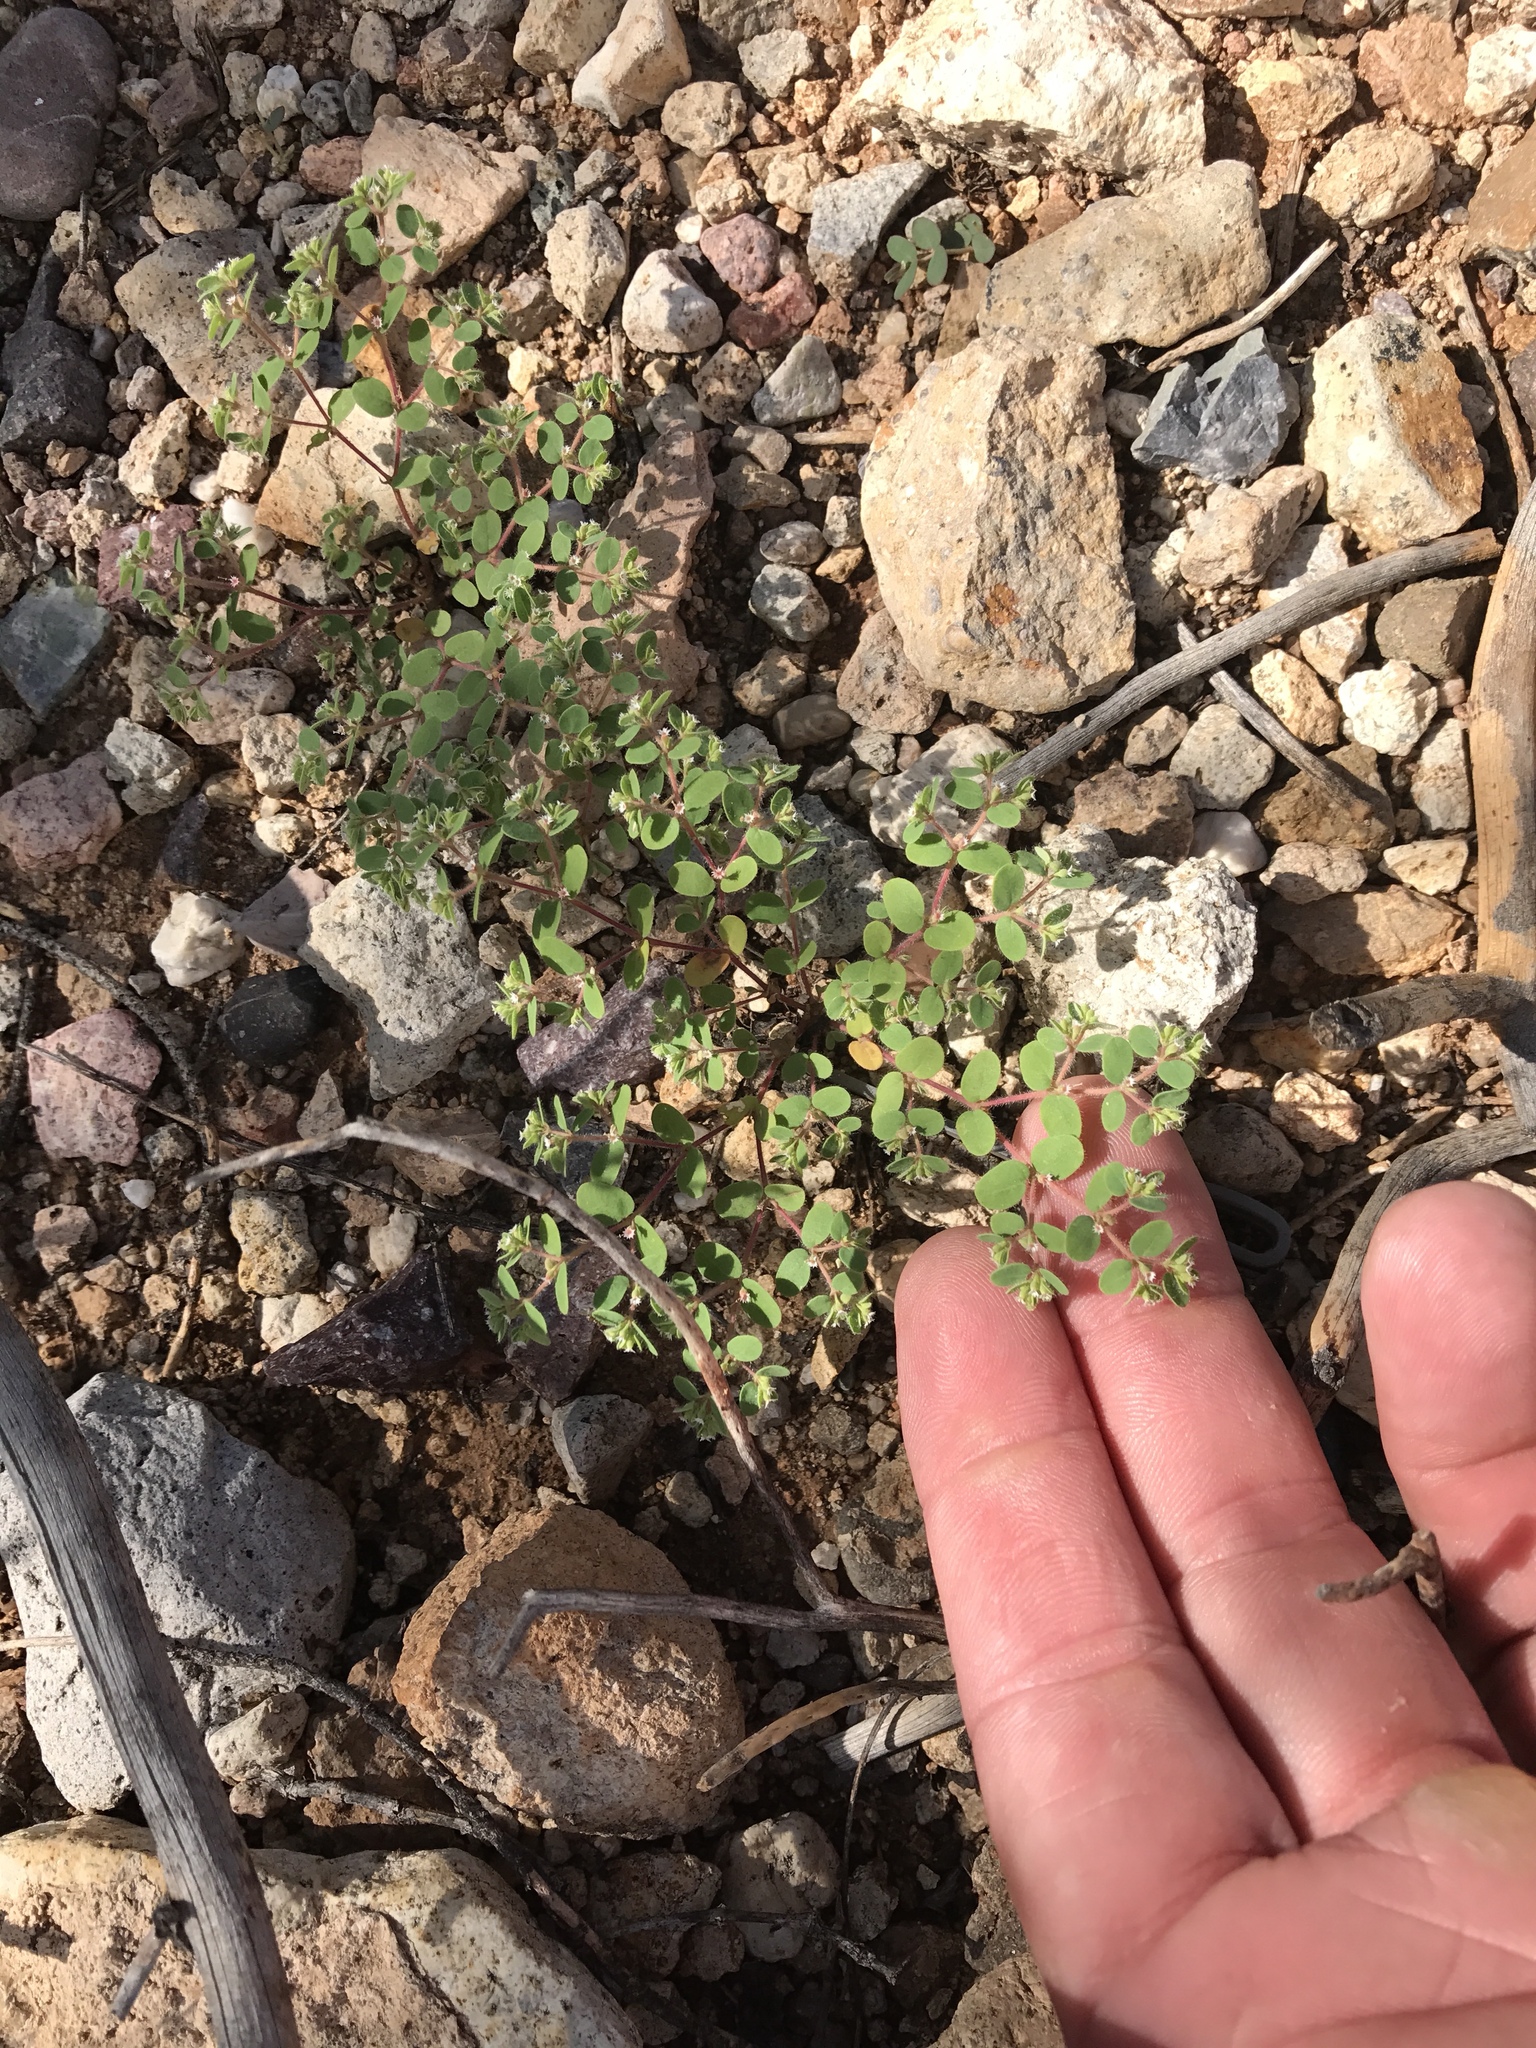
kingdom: Plantae
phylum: Tracheophyta
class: Magnoliopsida
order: Malpighiales
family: Euphorbiaceae
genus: Euphorbia
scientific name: Euphorbia setiloba
